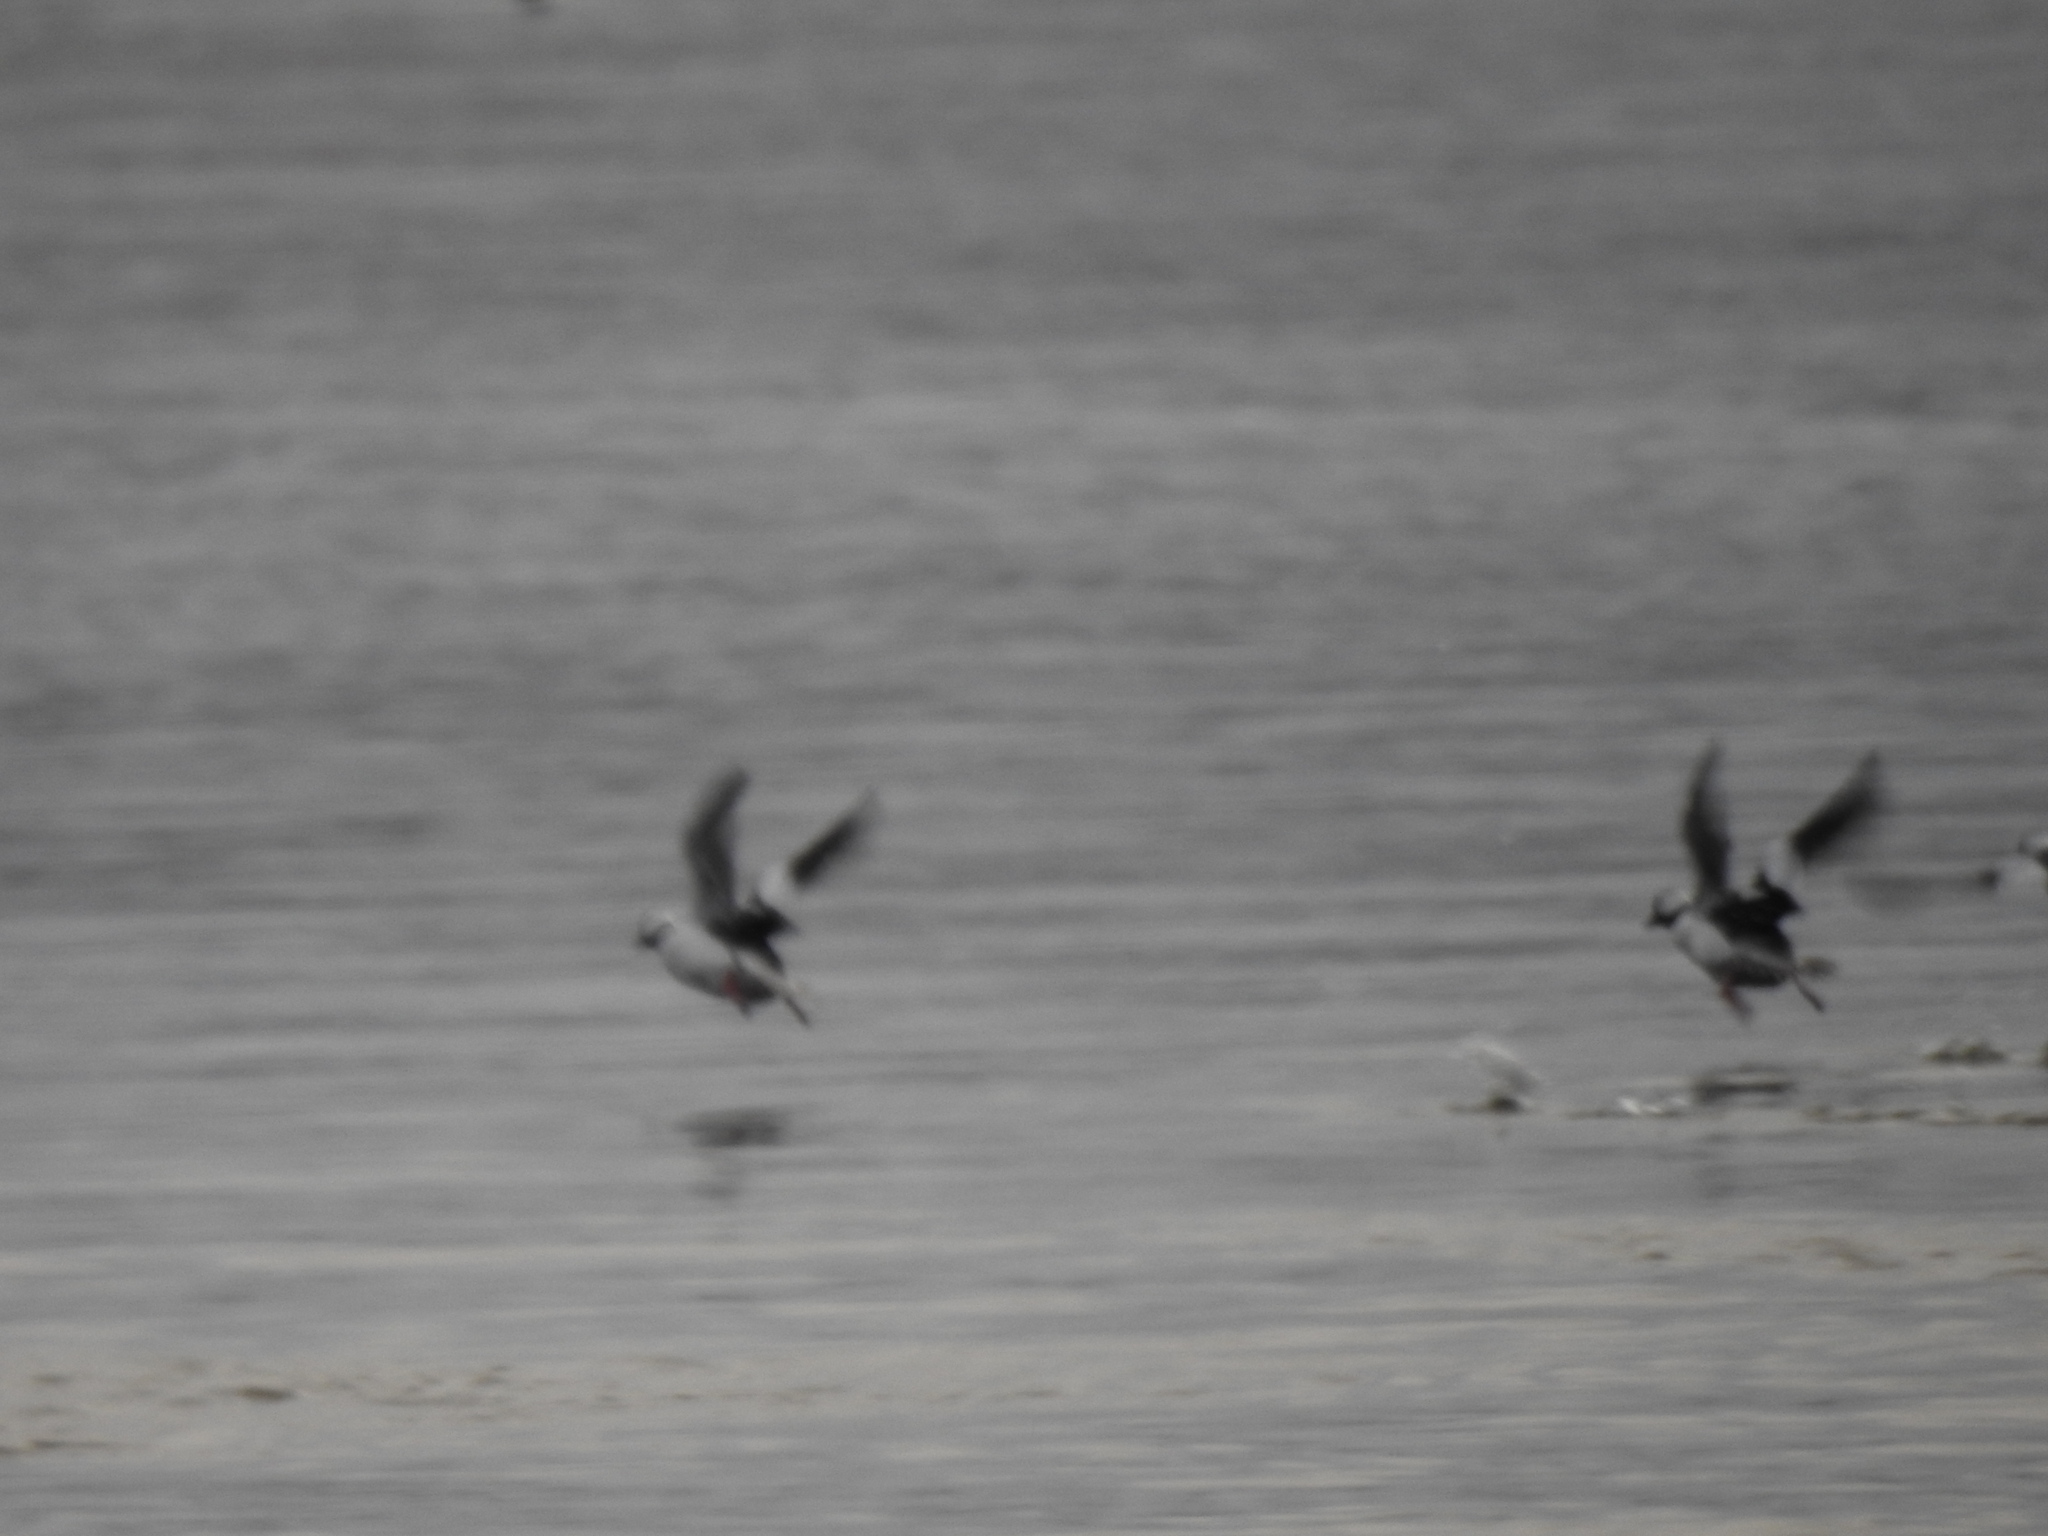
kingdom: Animalia
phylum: Chordata
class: Aves
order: Anseriformes
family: Anatidae
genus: Bucephala
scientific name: Bucephala albeola
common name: Bufflehead
